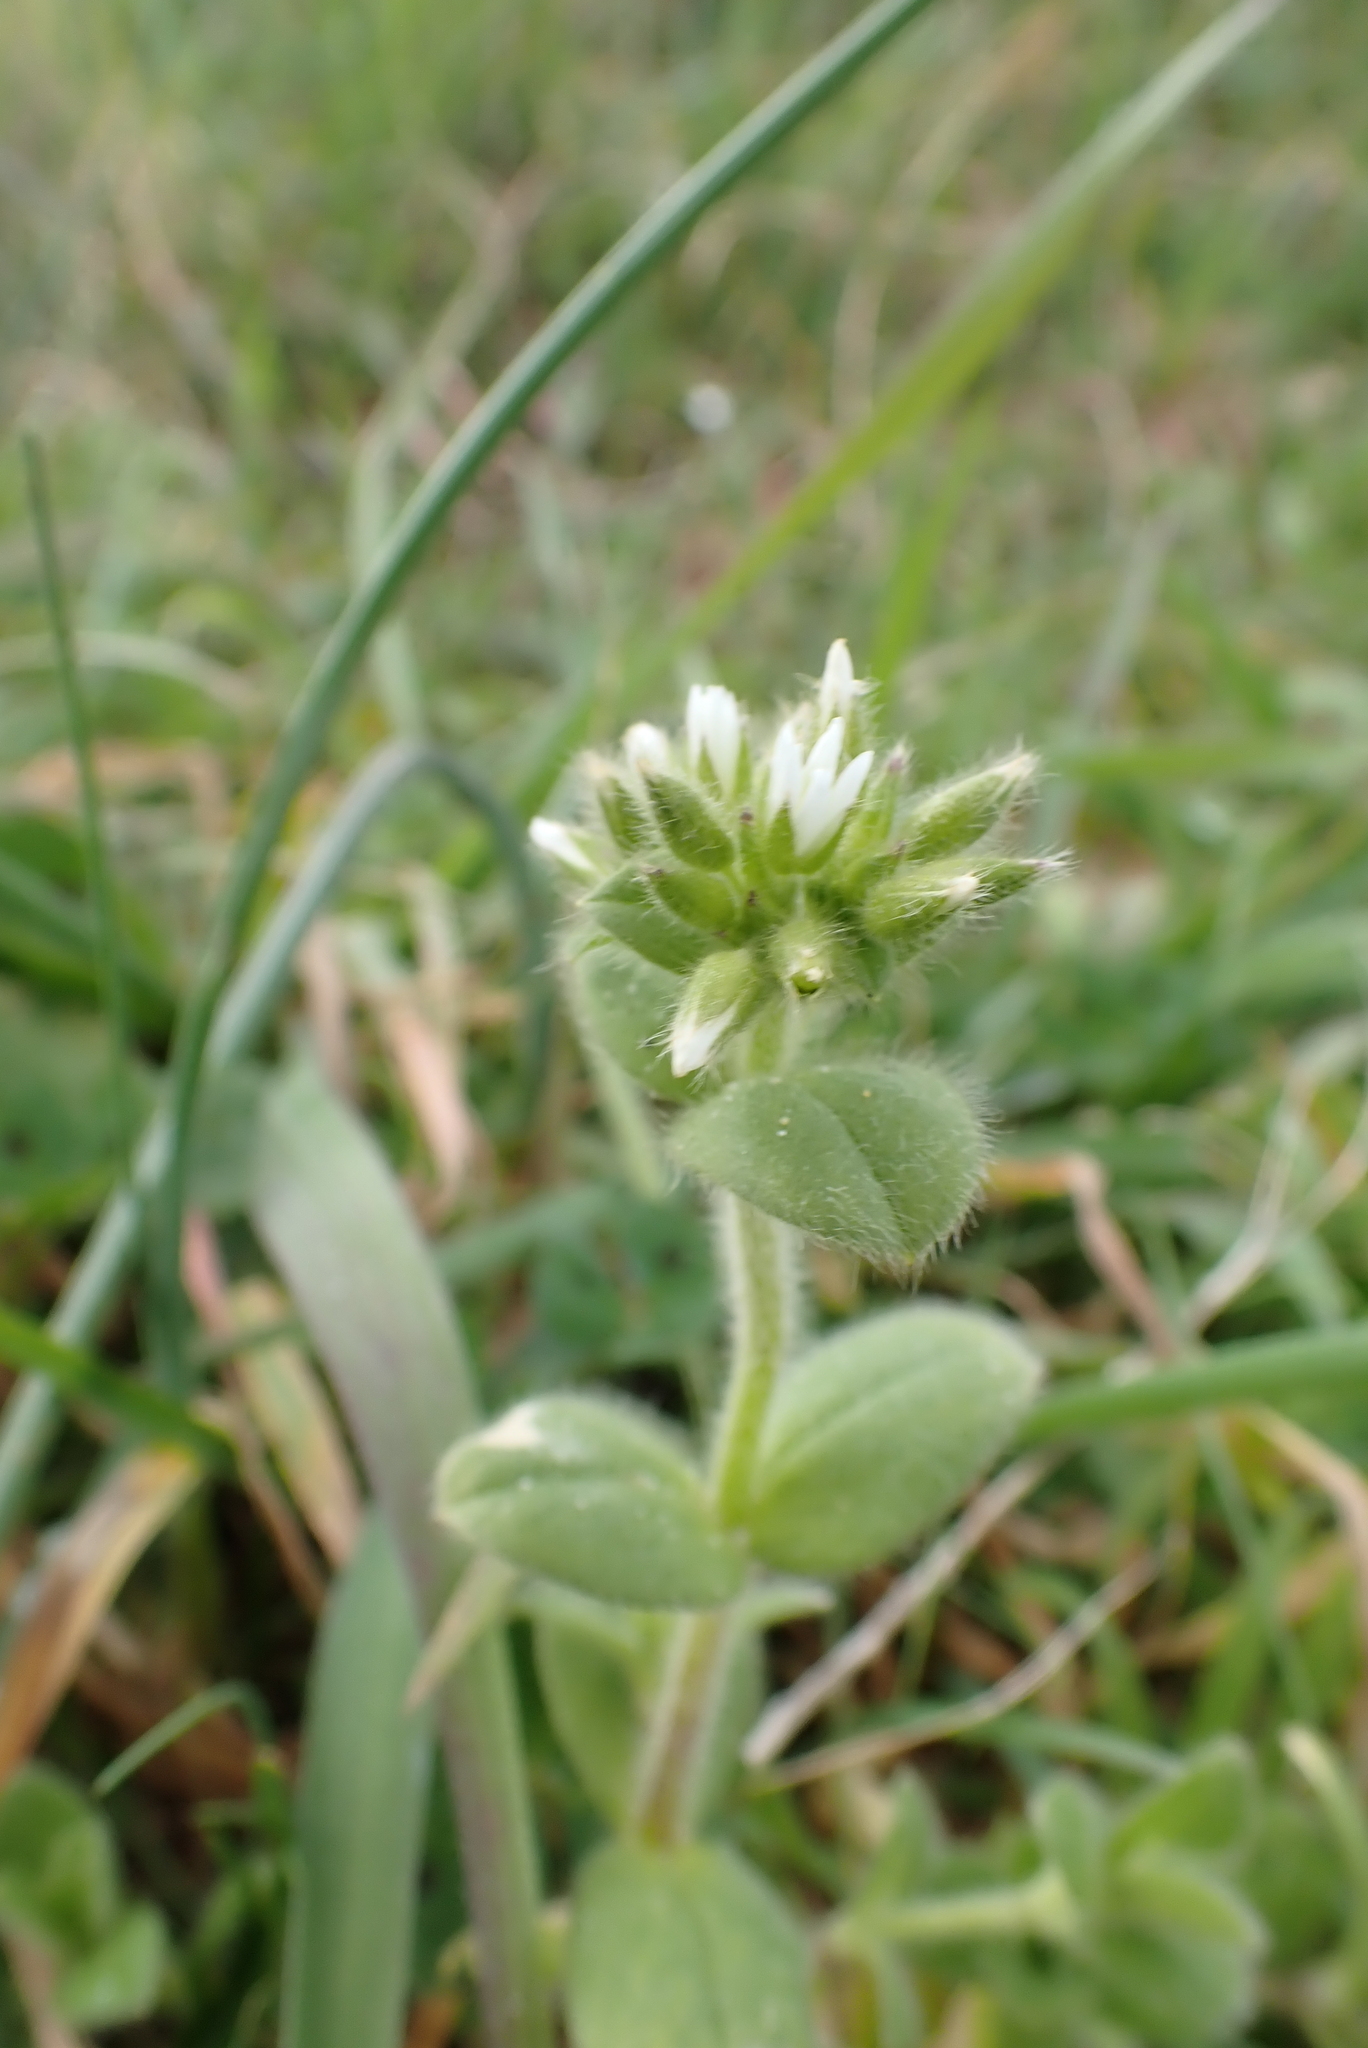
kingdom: Plantae
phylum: Tracheophyta
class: Magnoliopsida
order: Caryophyllales
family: Caryophyllaceae
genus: Cerastium
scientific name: Cerastium glomeratum
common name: Sticky chickweed
